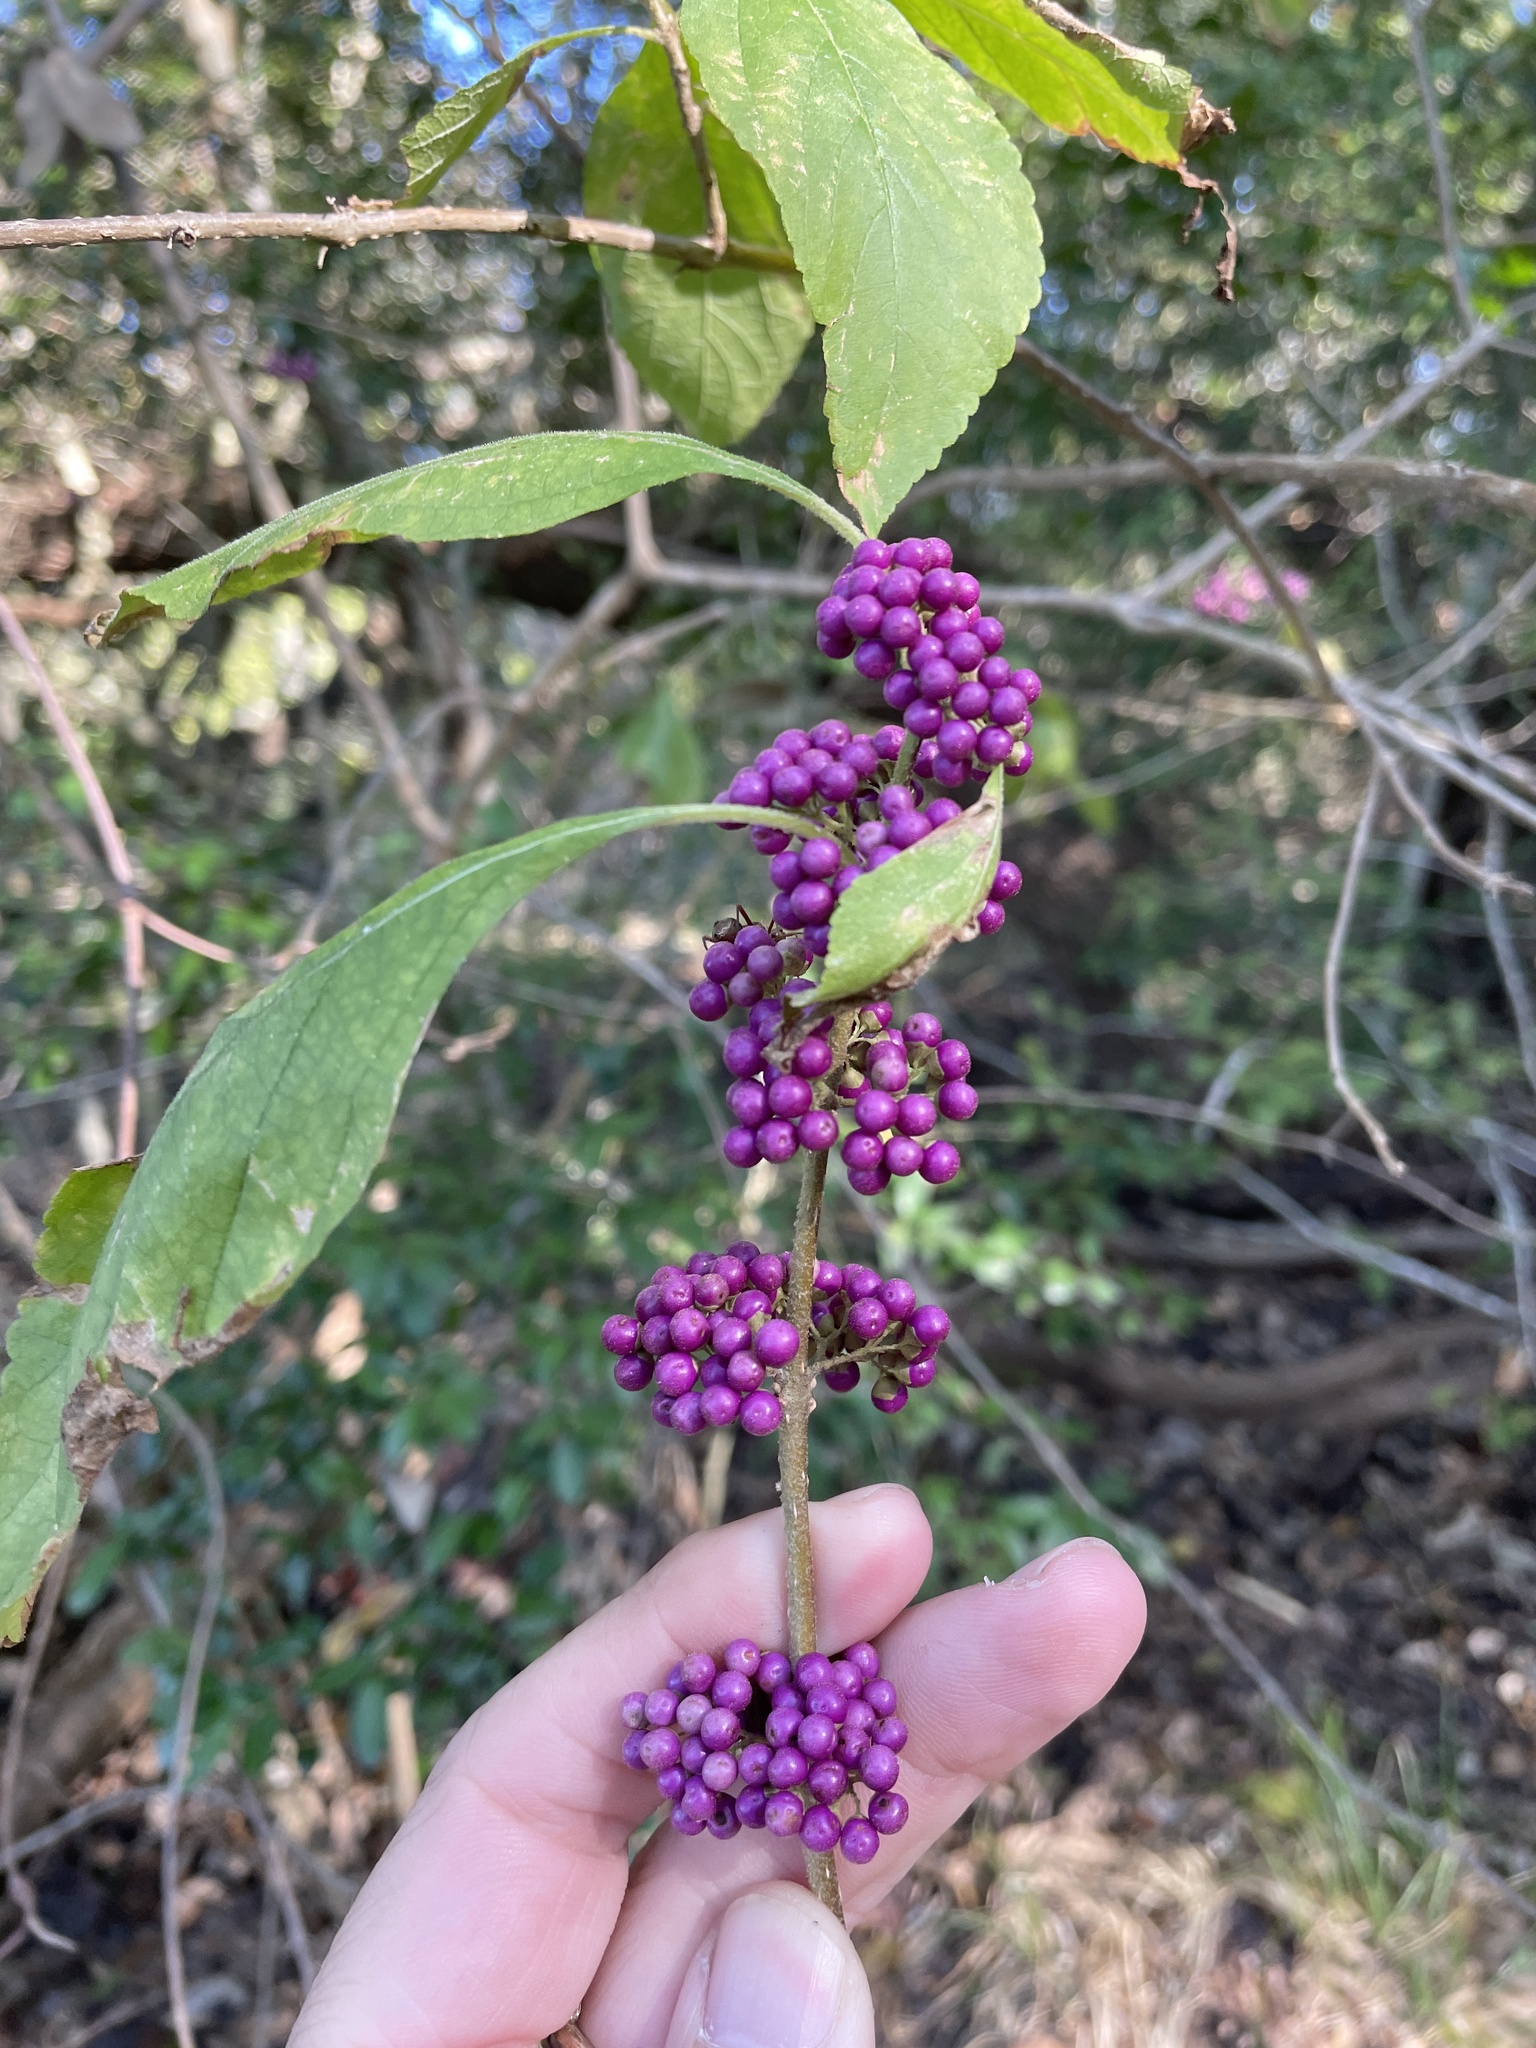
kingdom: Plantae
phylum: Tracheophyta
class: Magnoliopsida
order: Lamiales
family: Lamiaceae
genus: Callicarpa
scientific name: Callicarpa americana
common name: American beautyberry
